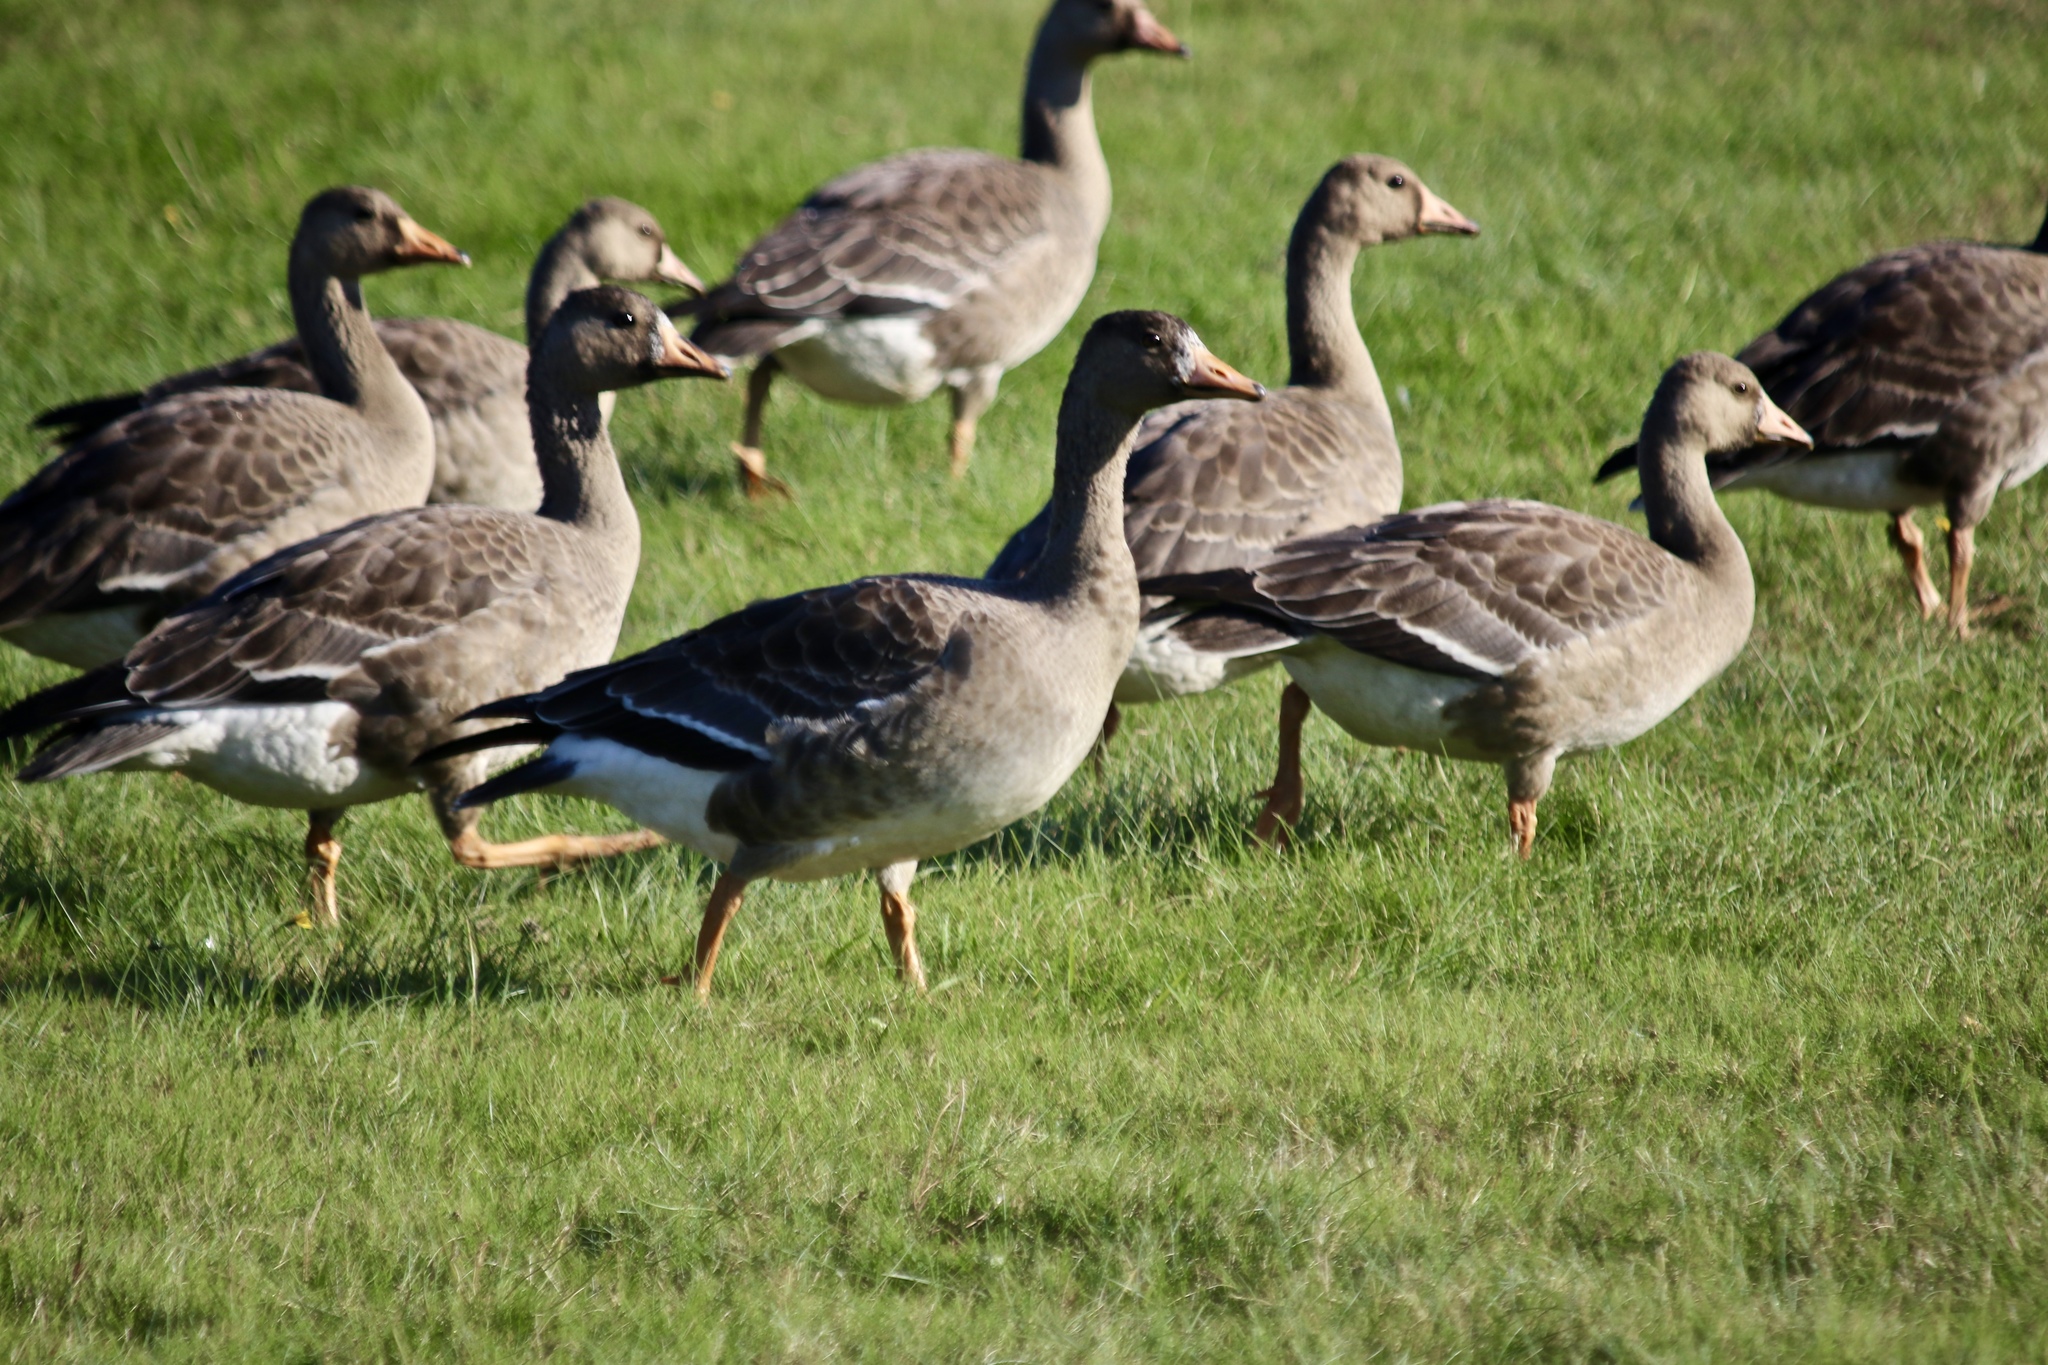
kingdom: Animalia
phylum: Chordata
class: Aves
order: Anseriformes
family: Anatidae
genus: Anser
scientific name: Anser albifrons
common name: Greater white-fronted goose
